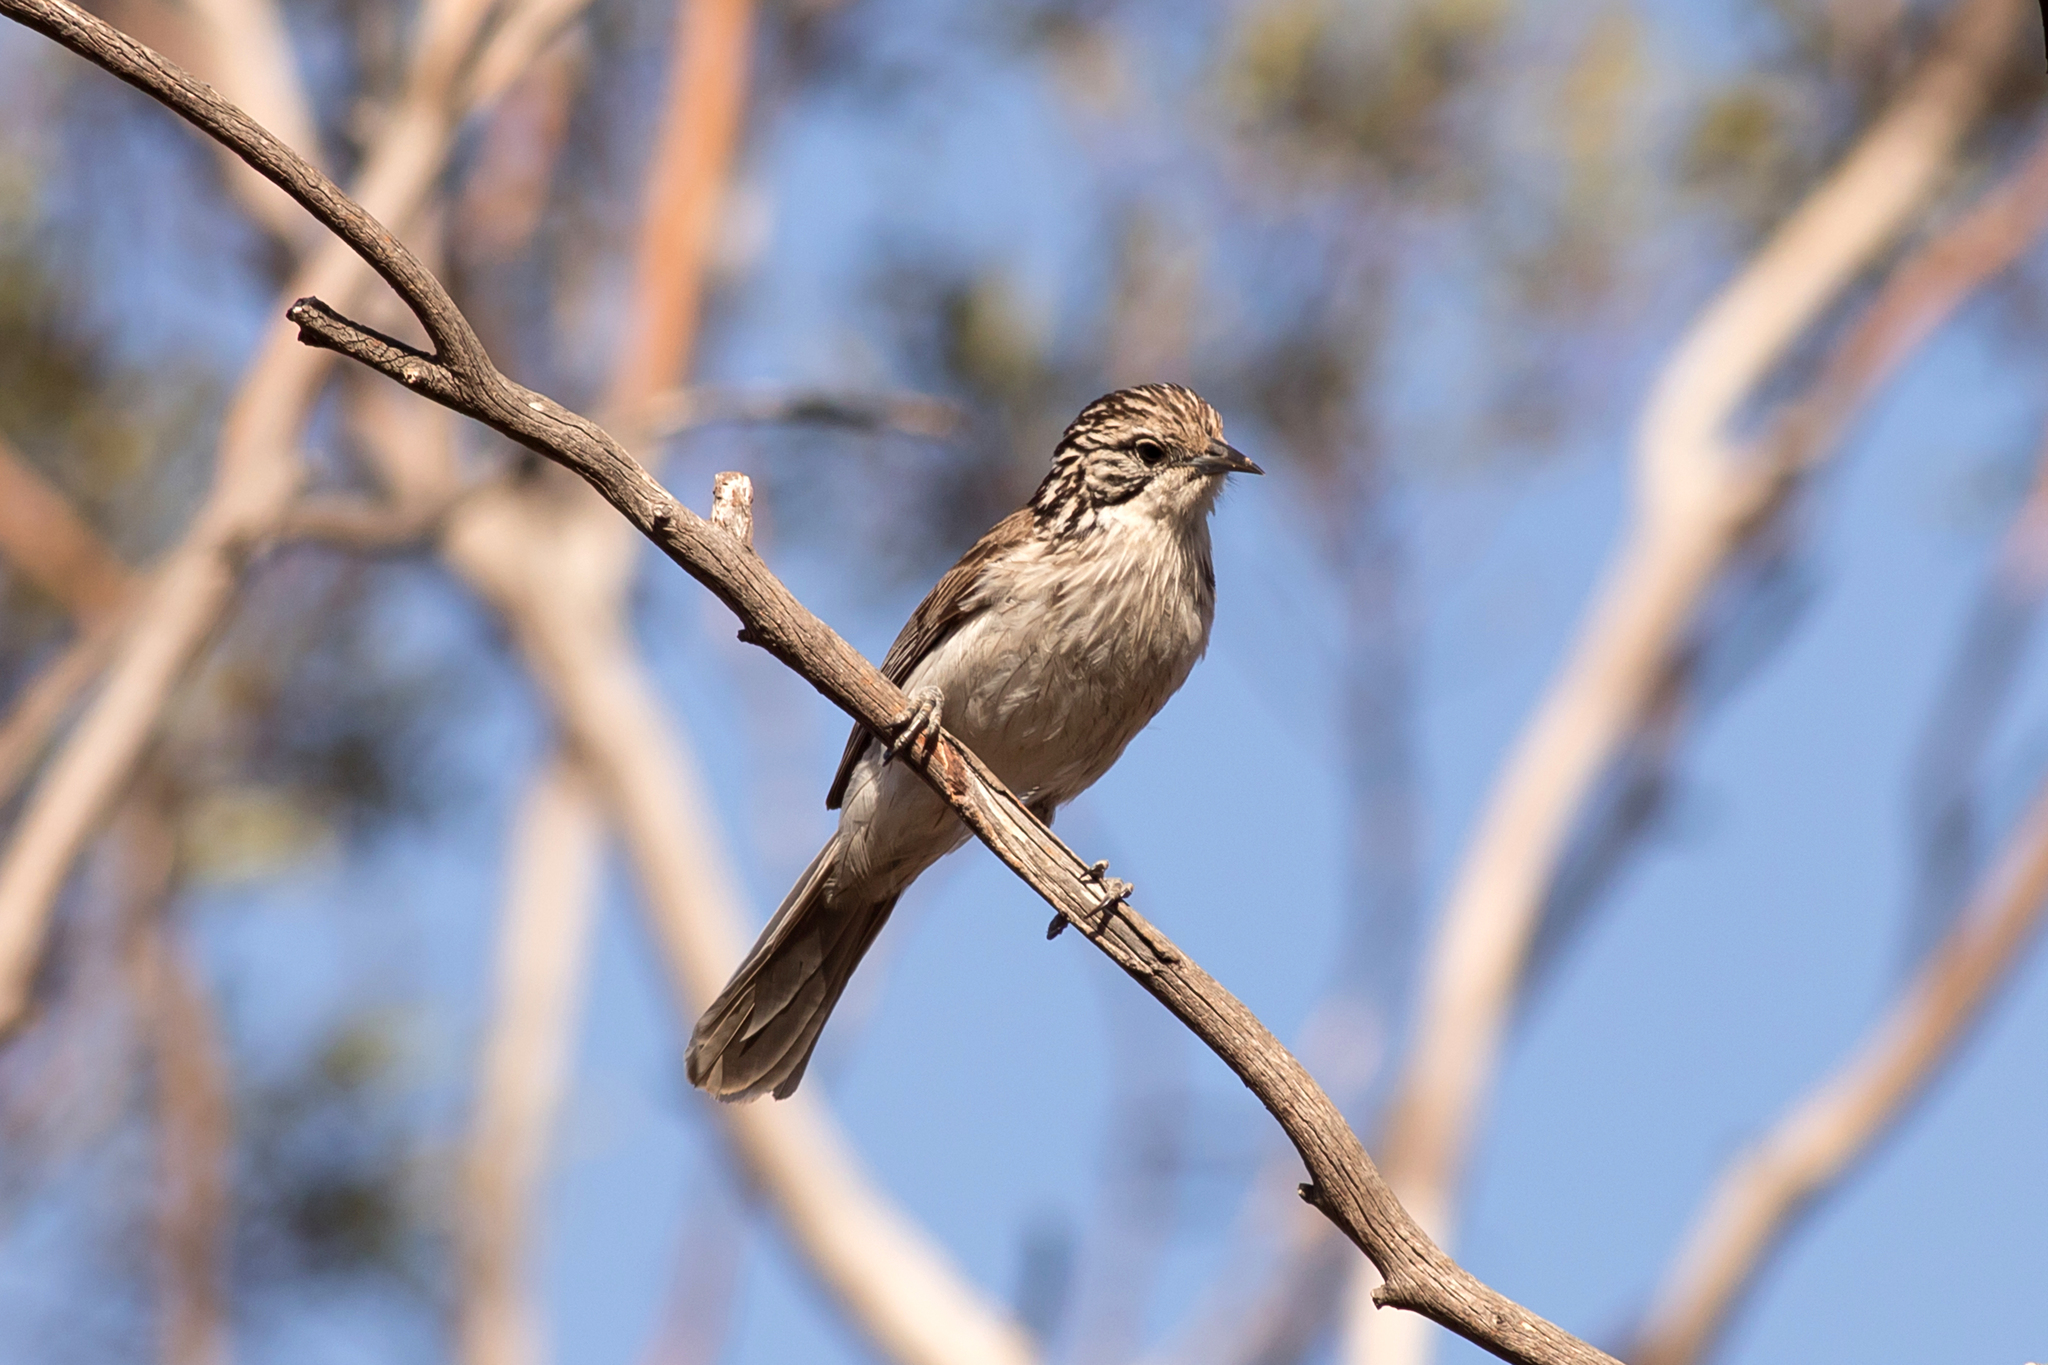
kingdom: Animalia
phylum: Chordata
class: Aves
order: Passeriformes
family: Meliphagidae
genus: Plectorhyncha
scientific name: Plectorhyncha lanceolata
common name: Striped honeyeater
